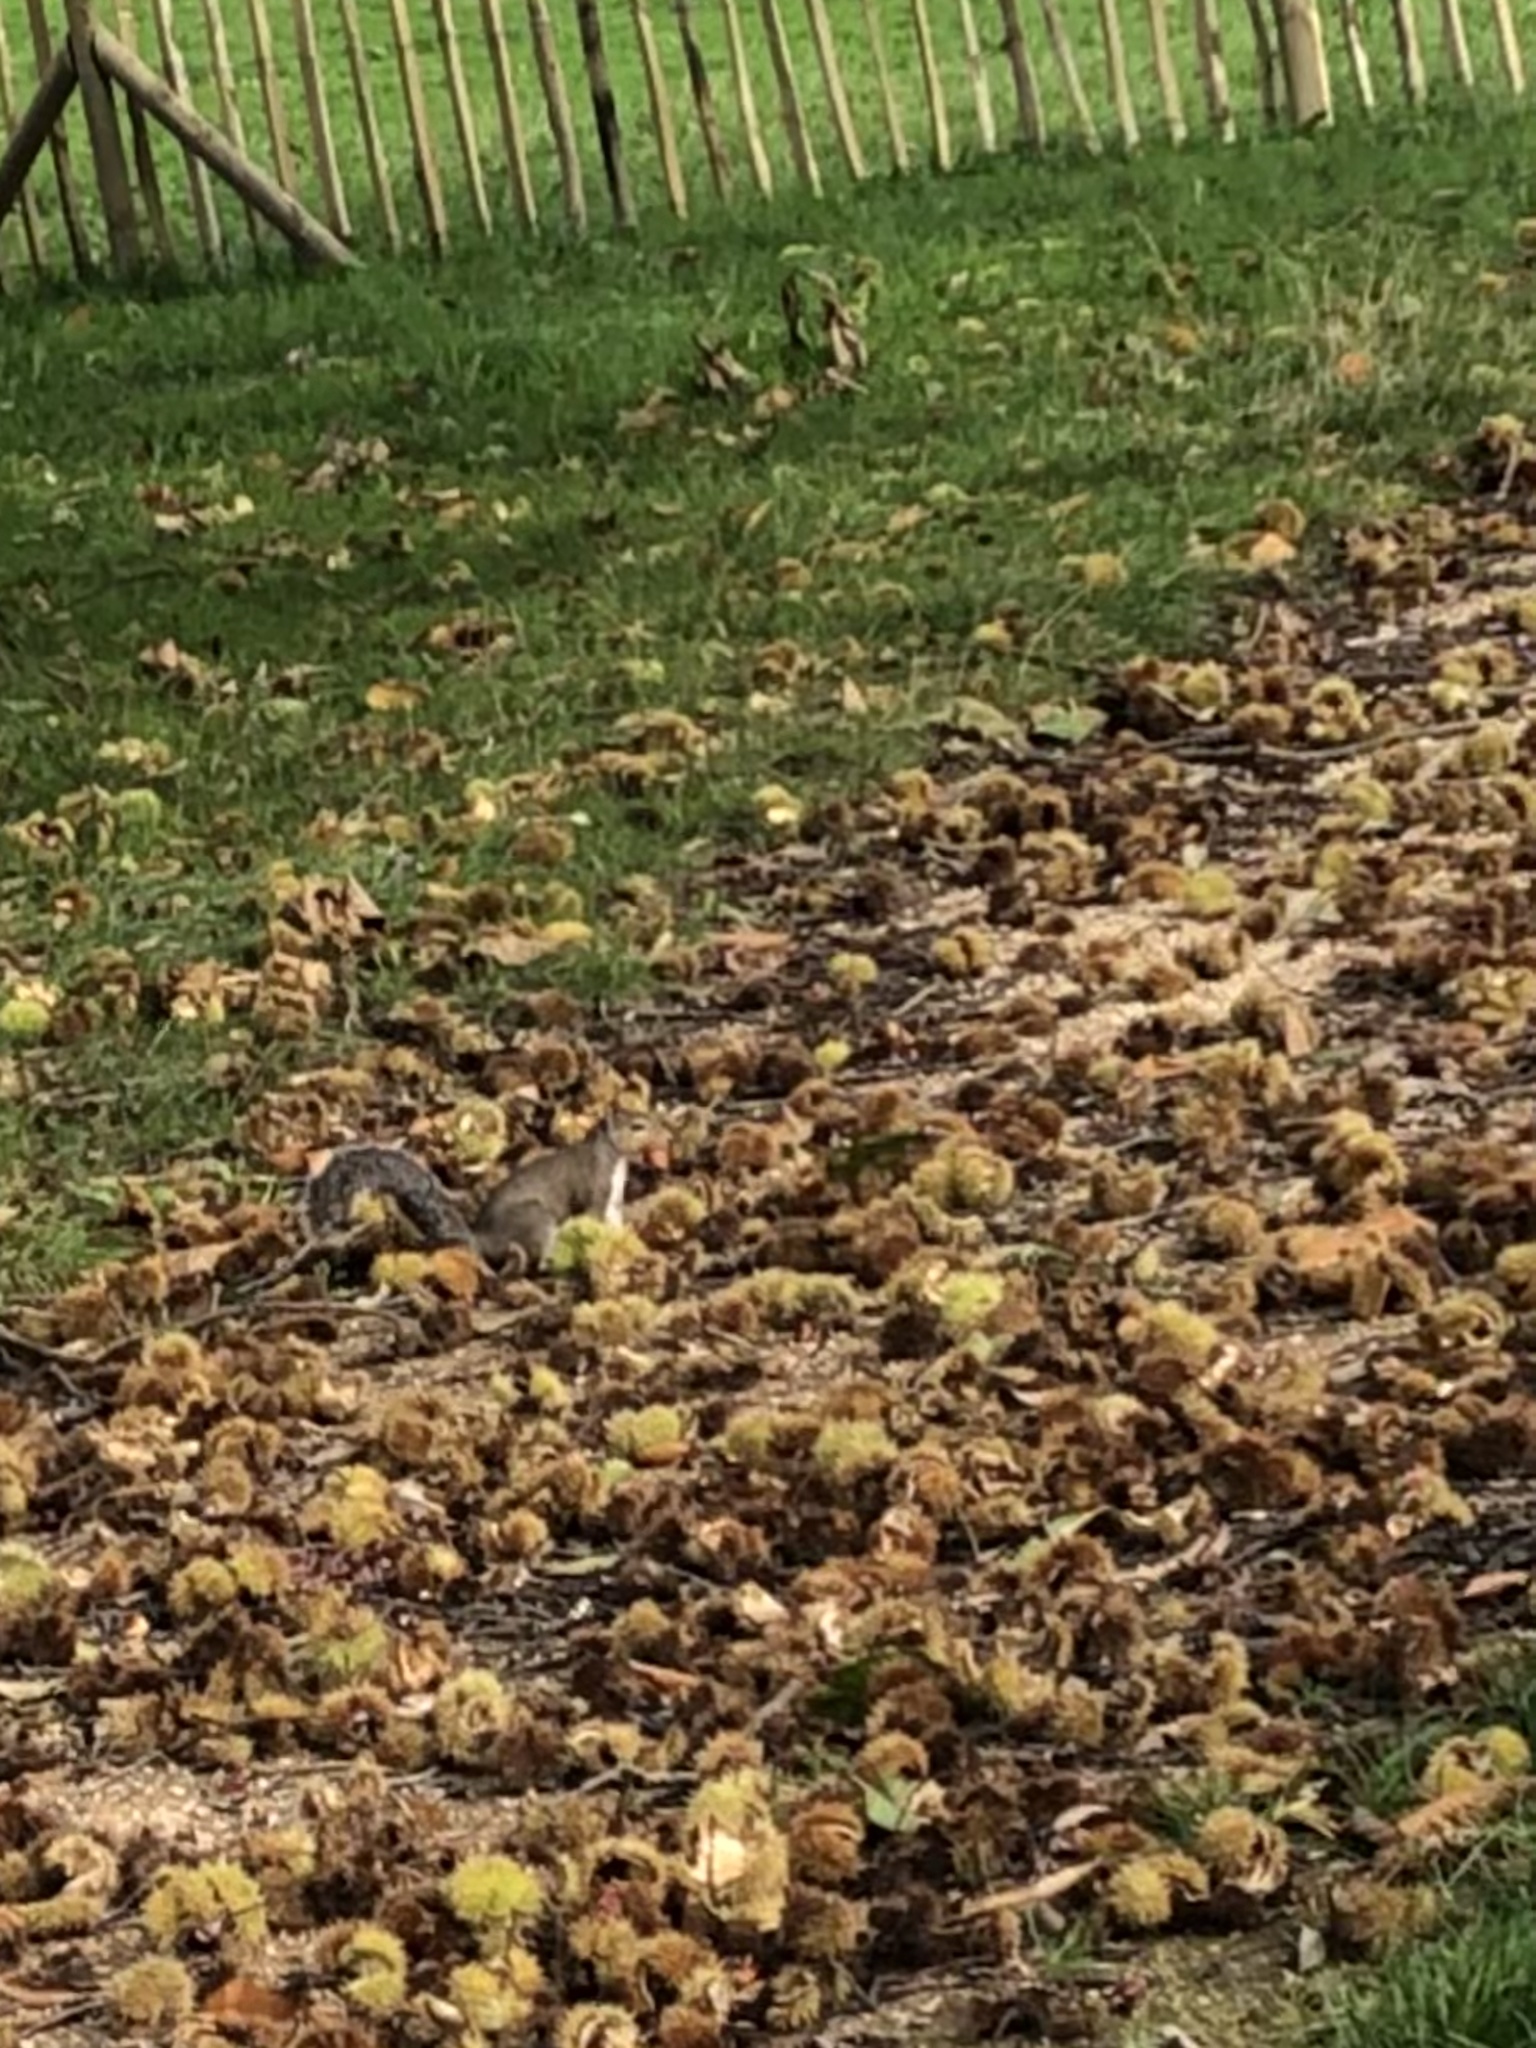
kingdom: Animalia
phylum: Chordata
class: Mammalia
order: Rodentia
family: Sciuridae
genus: Sciurus
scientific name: Sciurus carolinensis
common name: Eastern gray squirrel
